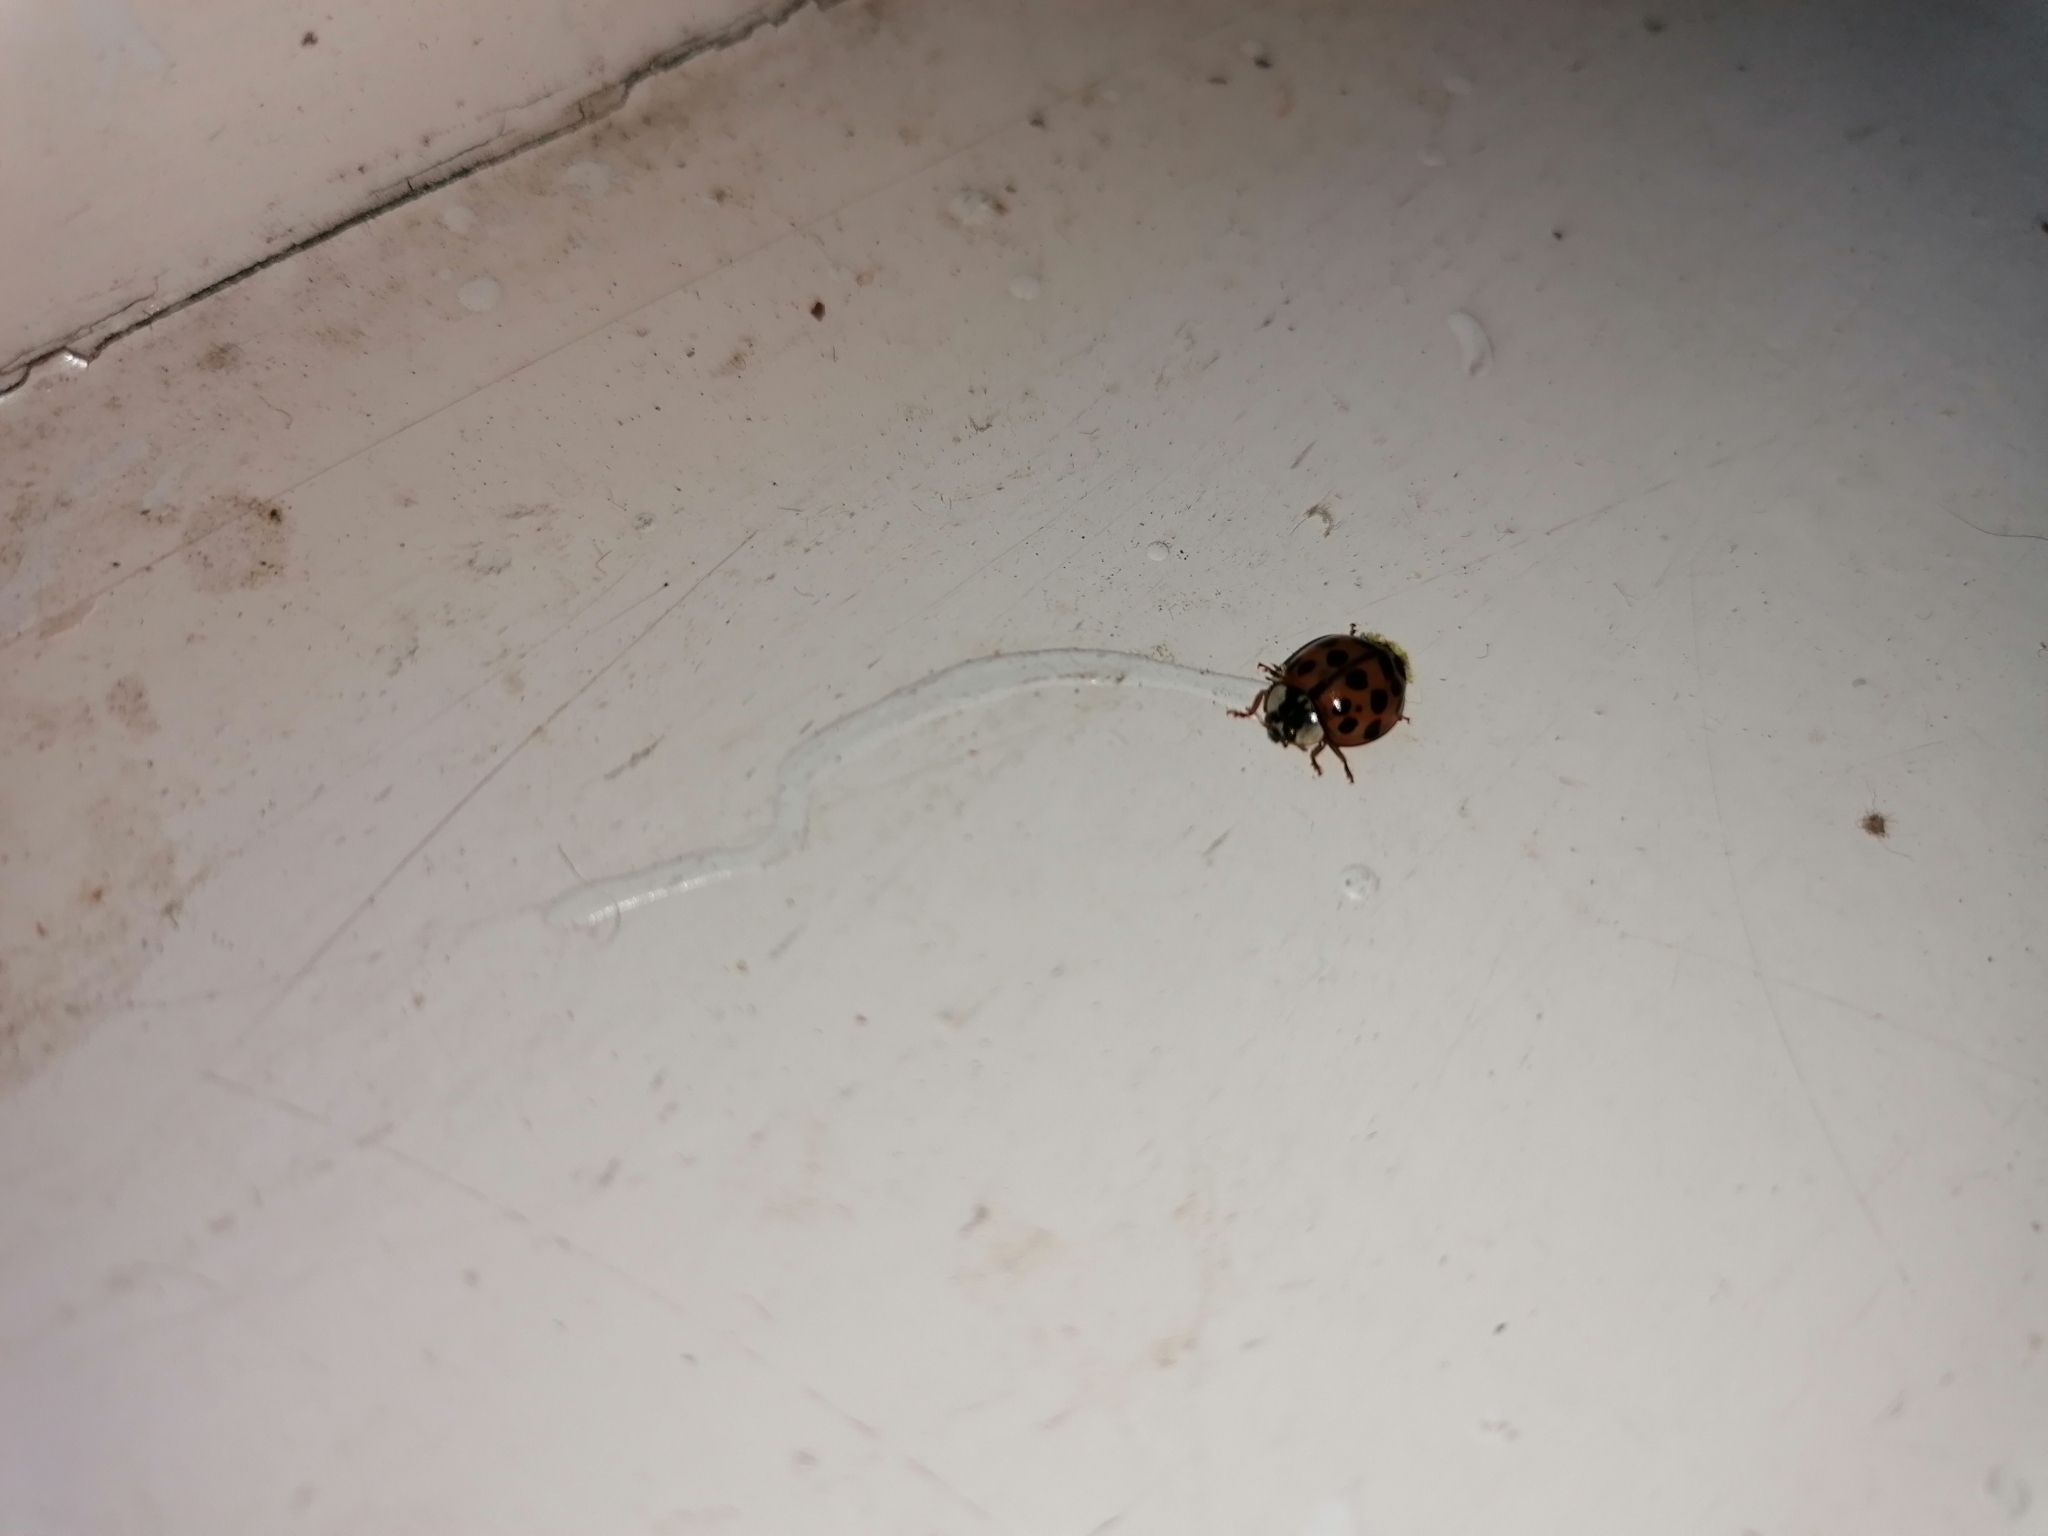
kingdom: Animalia
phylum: Arthropoda
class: Insecta
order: Coleoptera
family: Coccinellidae
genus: Harmonia
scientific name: Harmonia axyridis
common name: Harlequin ladybird
